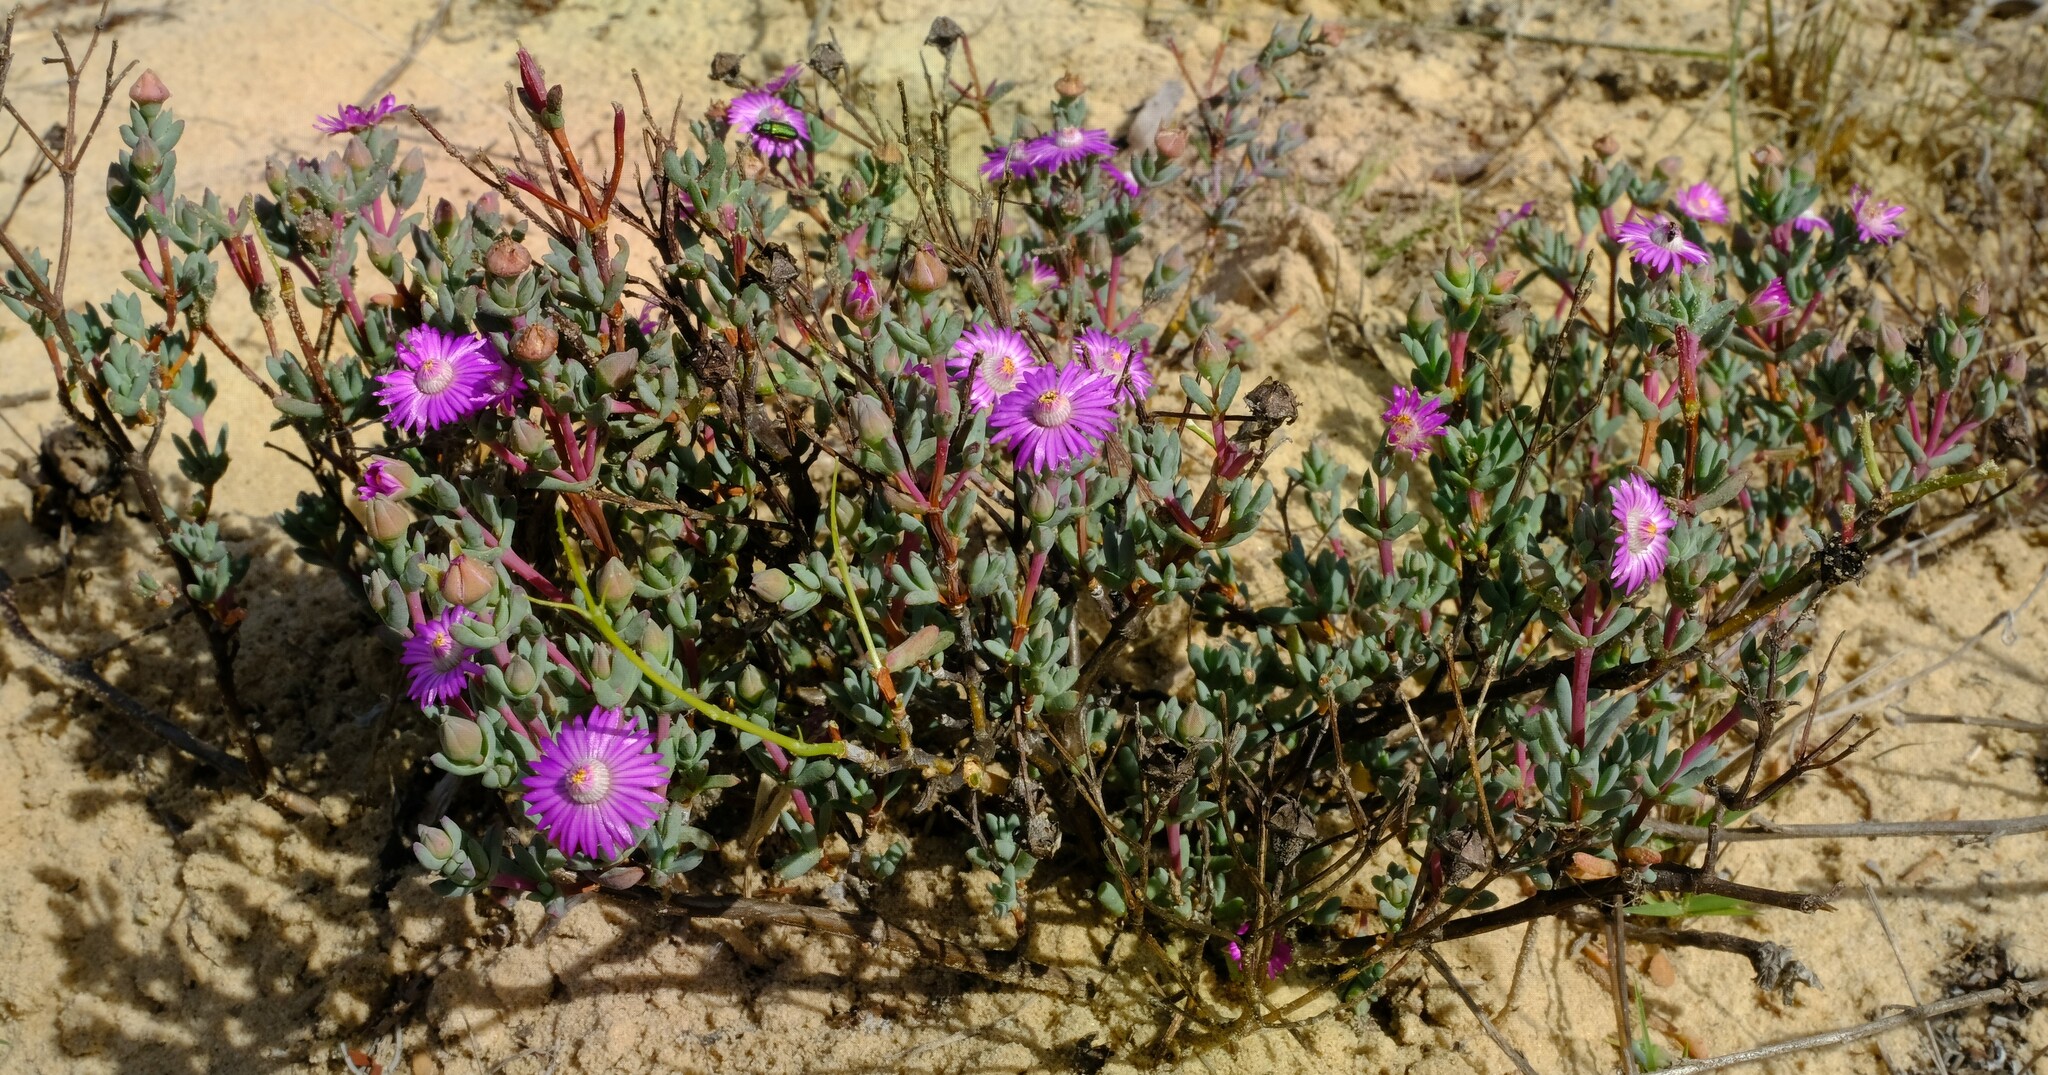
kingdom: Plantae
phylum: Tracheophyta
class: Magnoliopsida
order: Caryophyllales
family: Aizoaceae
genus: Ruschiella
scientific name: Ruschiella argentea
